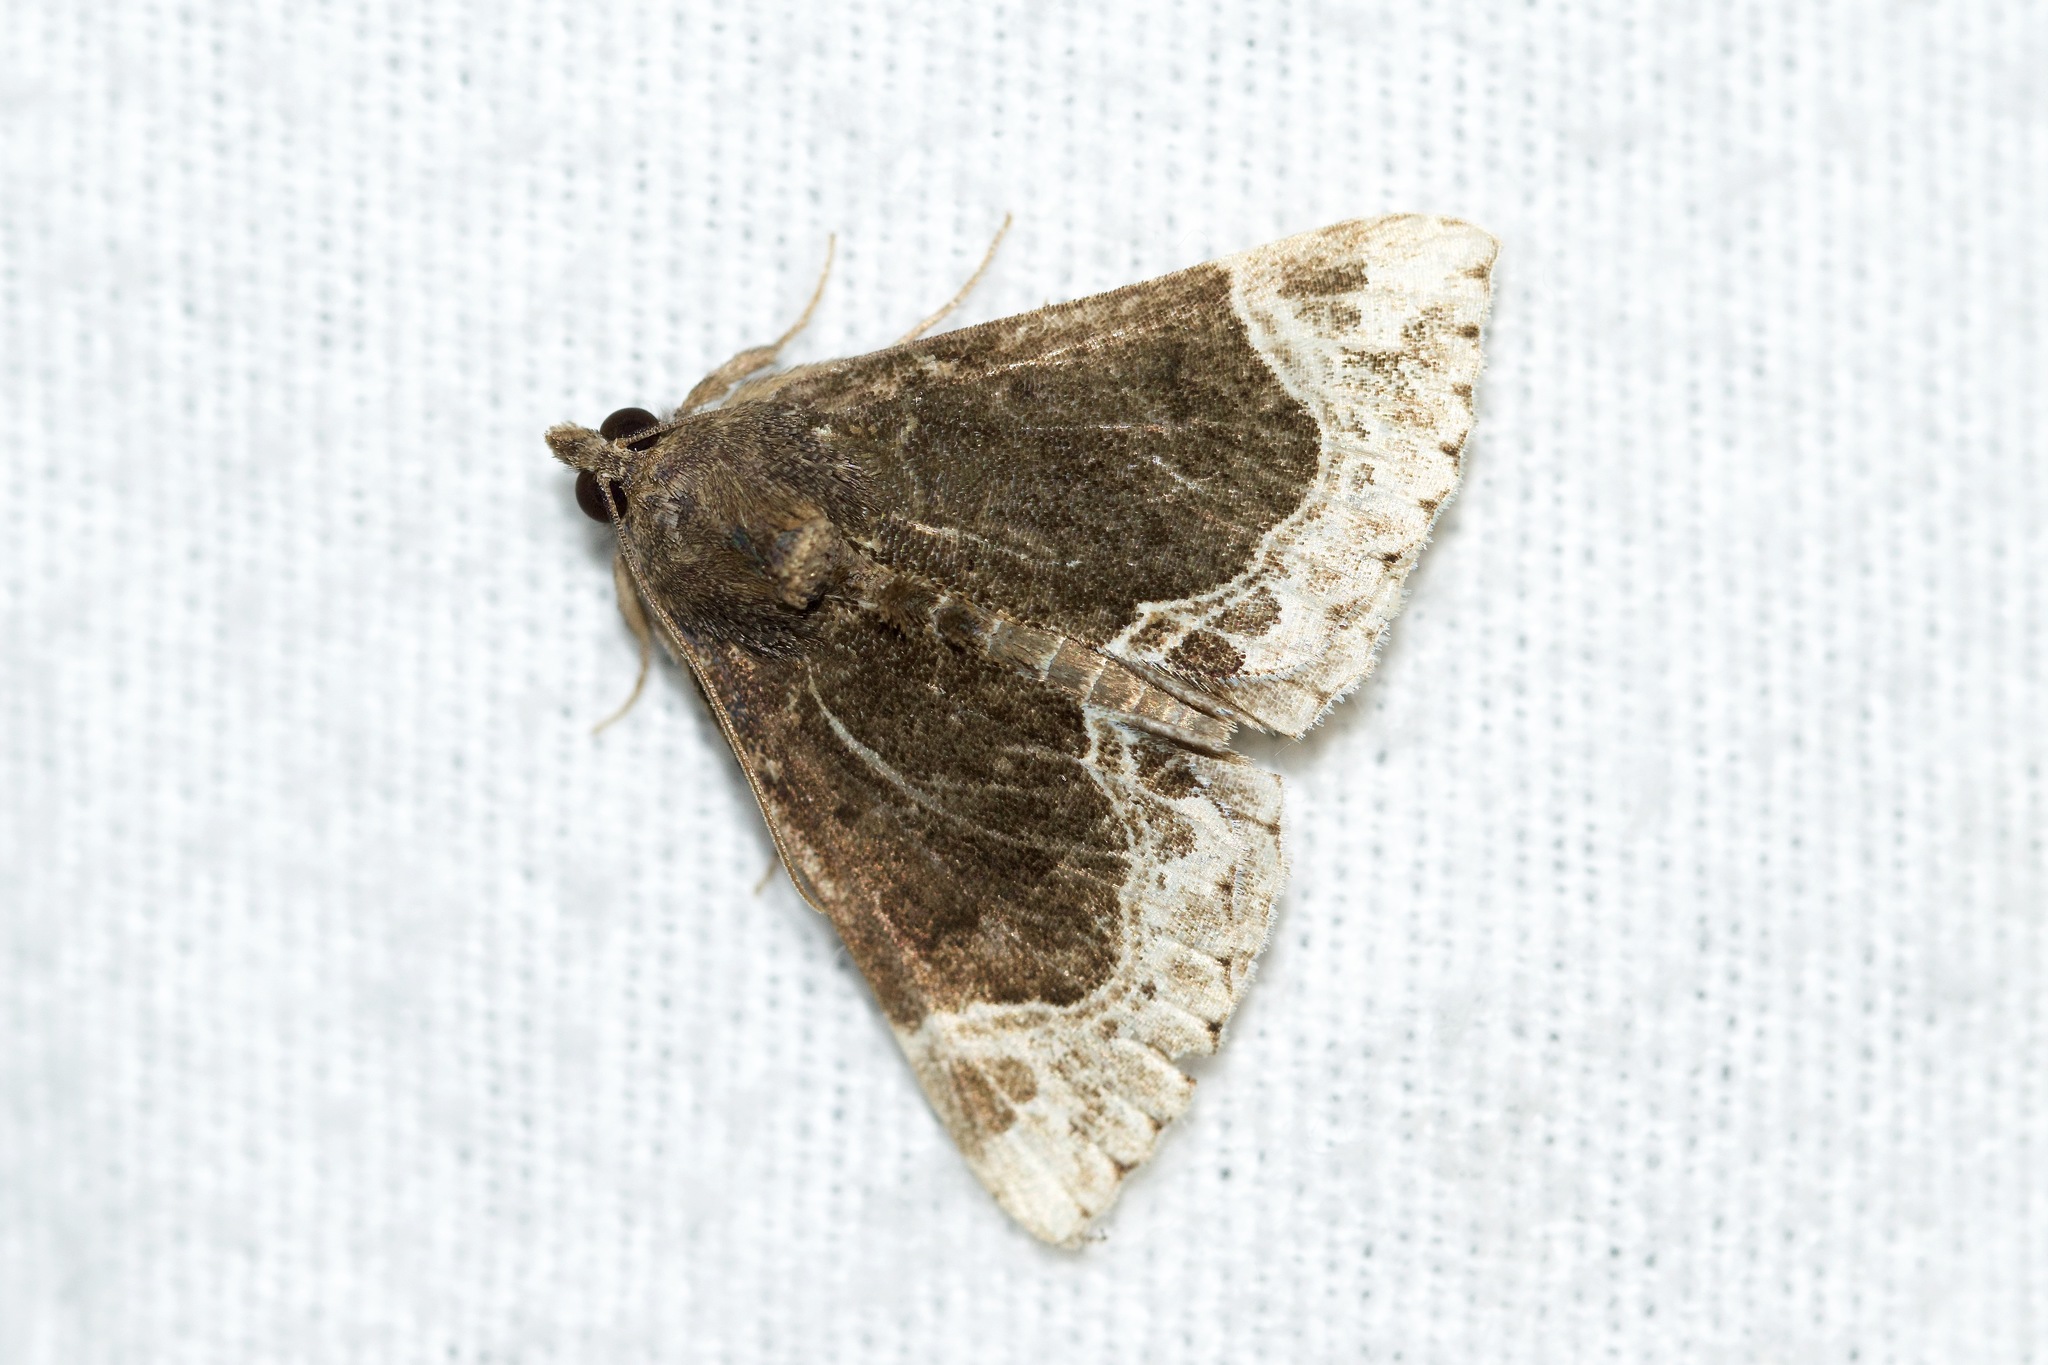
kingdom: Animalia
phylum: Arthropoda
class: Insecta
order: Lepidoptera
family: Erebidae
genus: Hypena
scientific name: Hypena abalienalis
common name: White-lined snout
